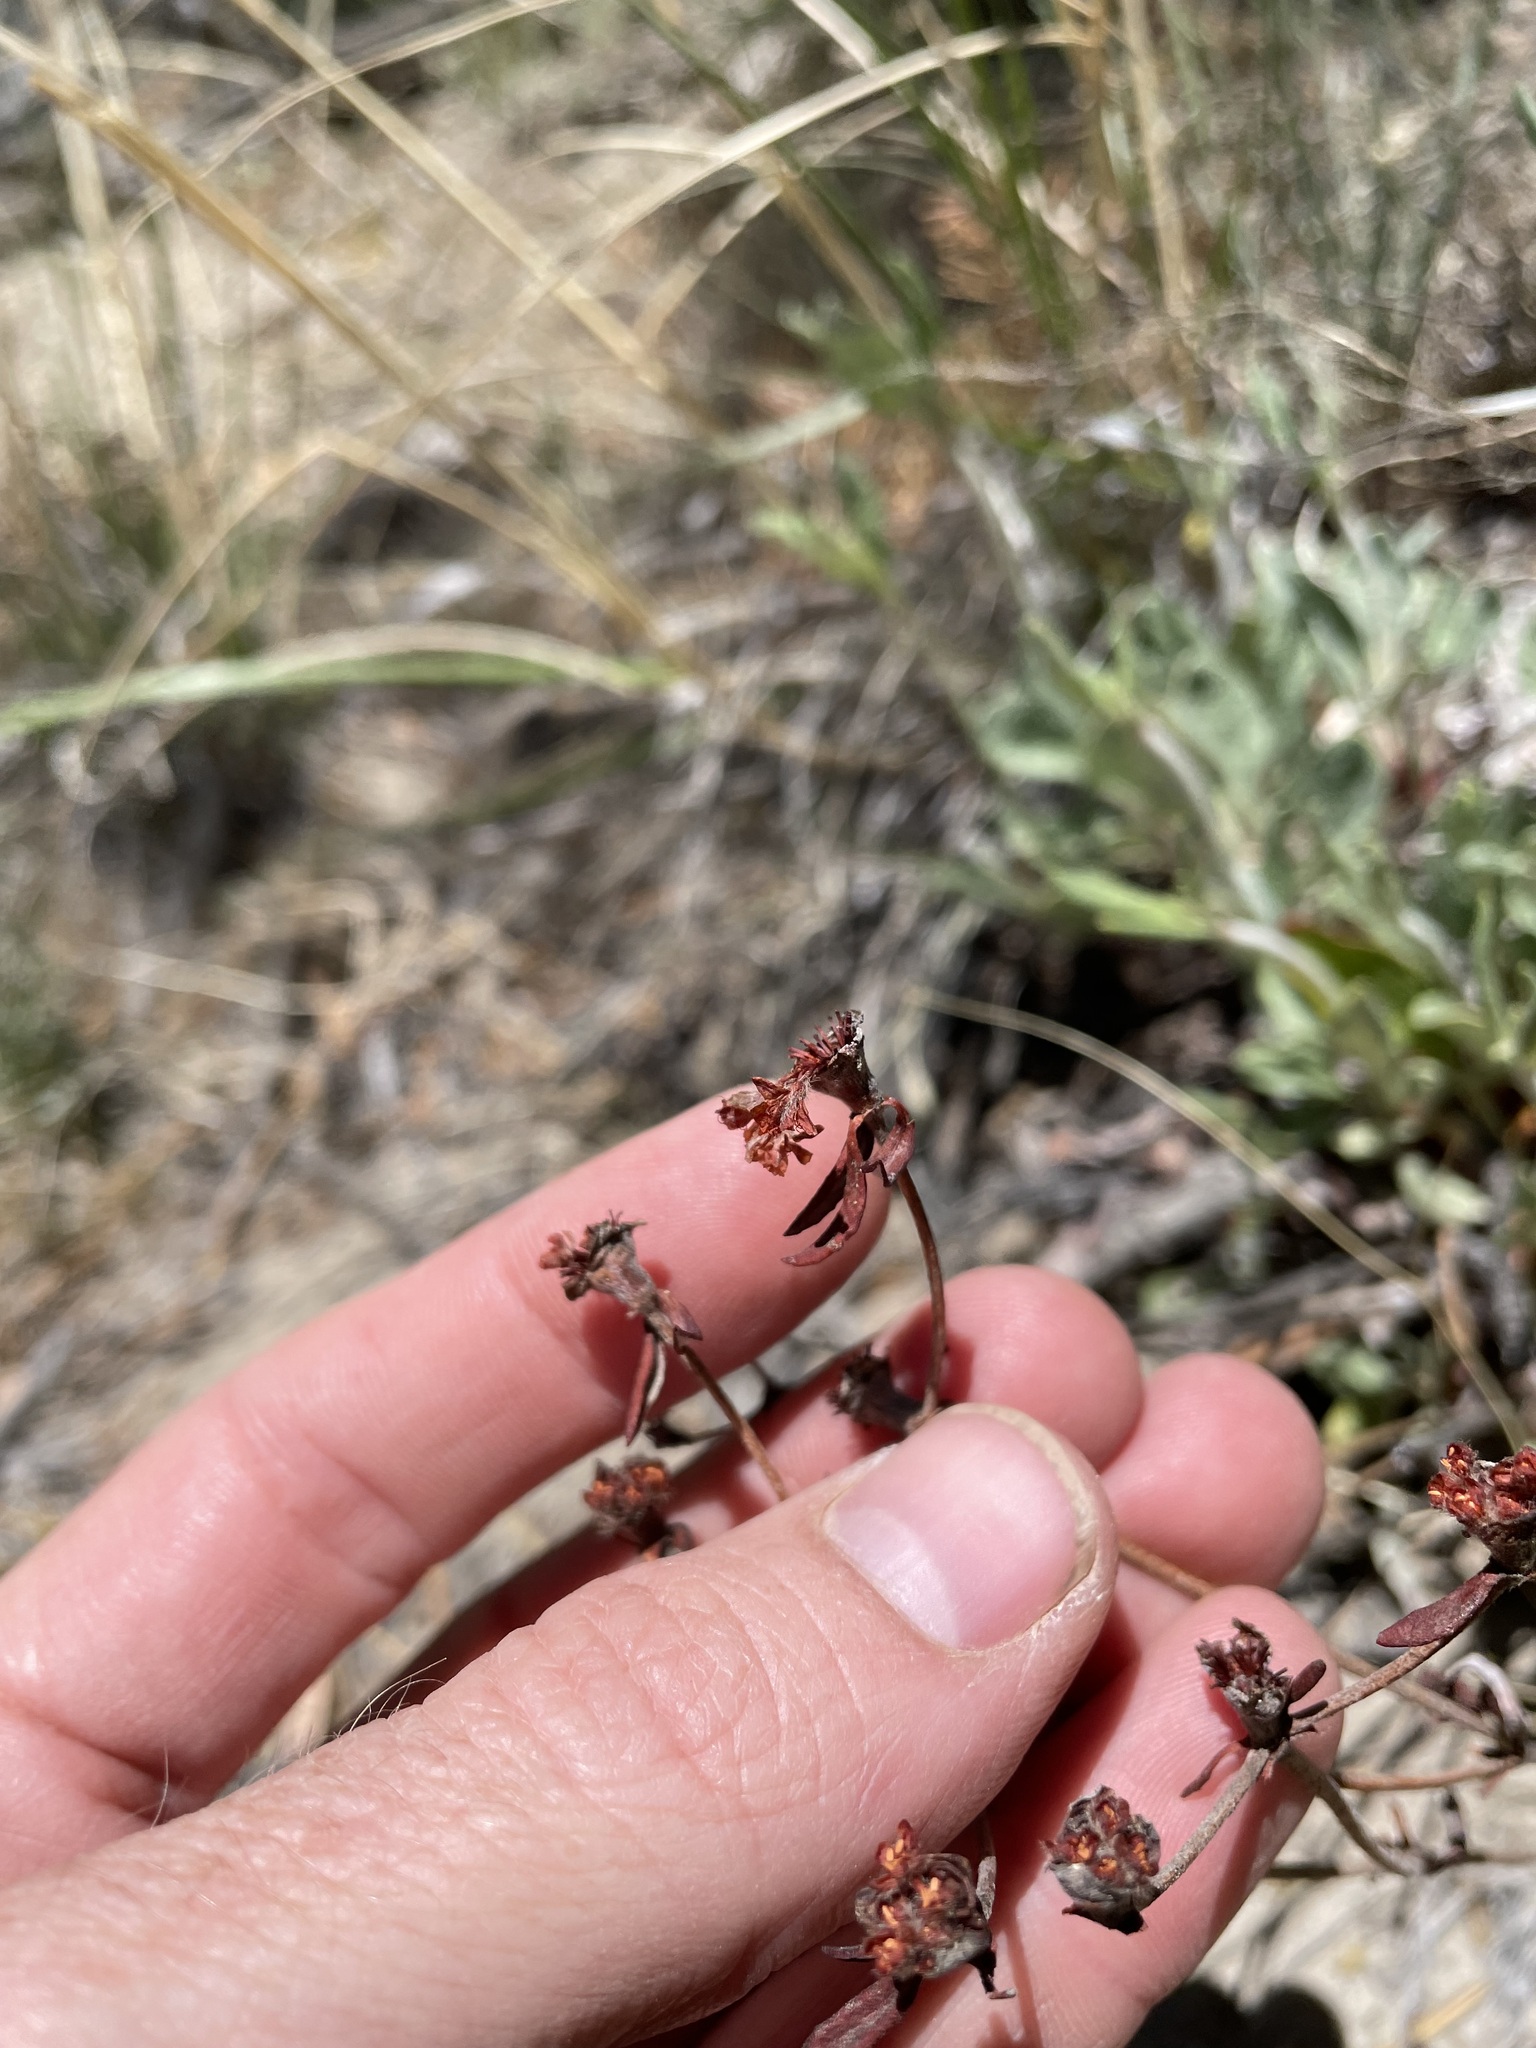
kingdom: Plantae
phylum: Tracheophyta
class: Magnoliopsida
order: Caryophyllales
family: Polygonaceae
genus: Eriogonum
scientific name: Eriogonum jamesii
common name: Antelope-sage
